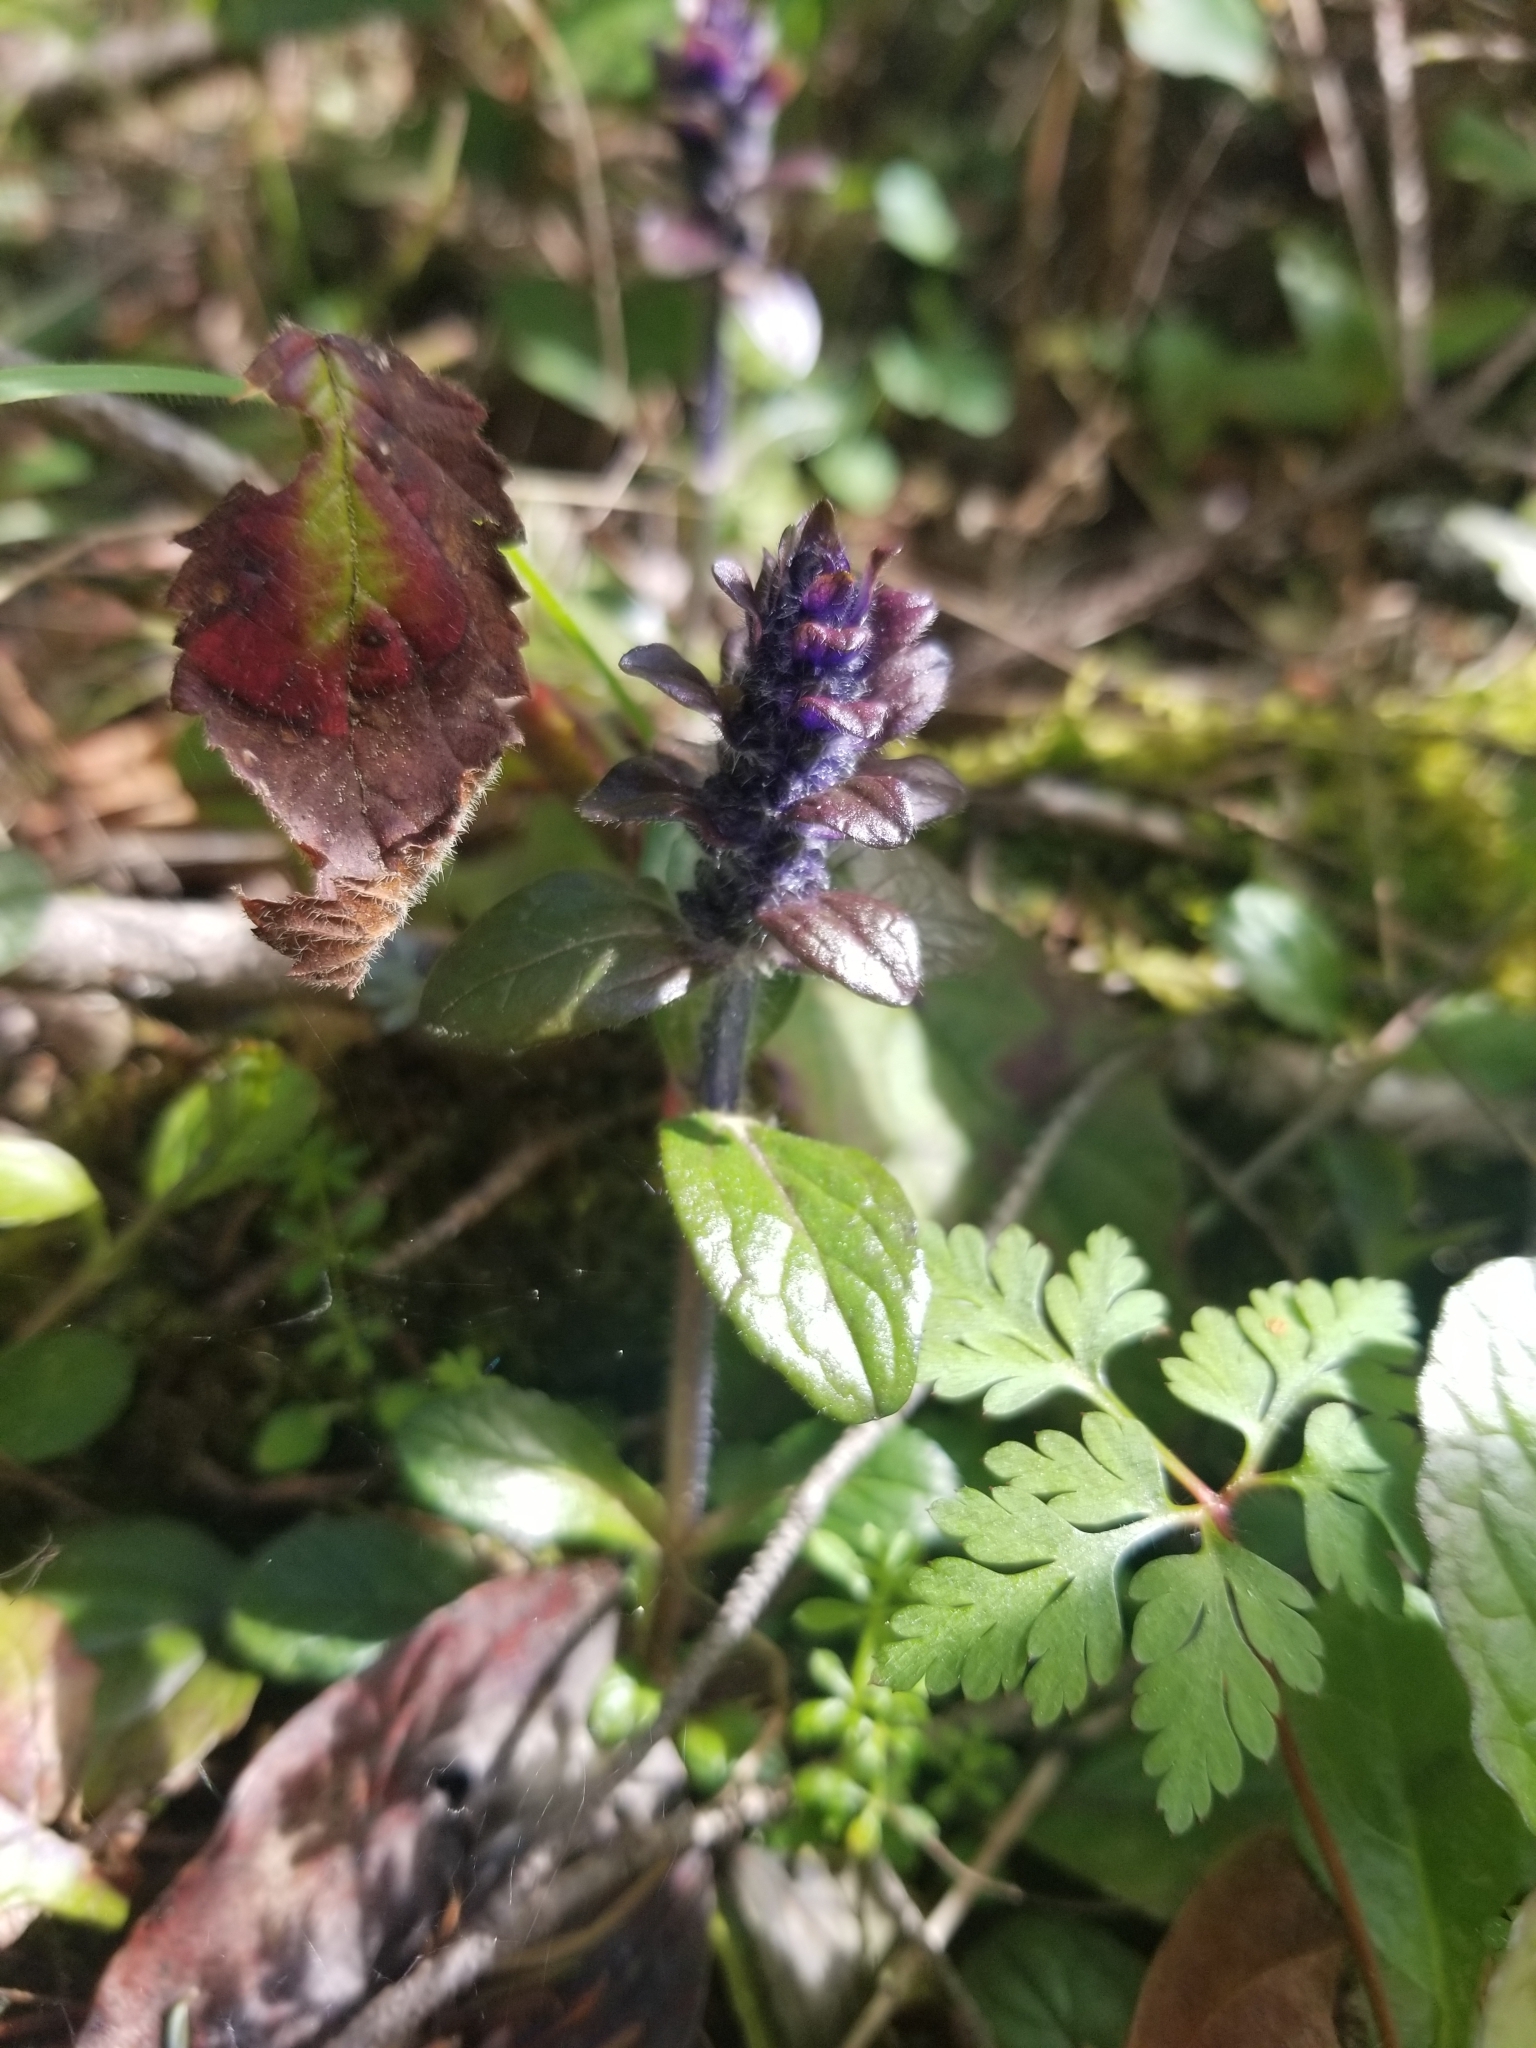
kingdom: Plantae
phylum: Tracheophyta
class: Magnoliopsida
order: Lamiales
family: Lamiaceae
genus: Ajuga
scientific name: Ajuga reptans
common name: Bugle
